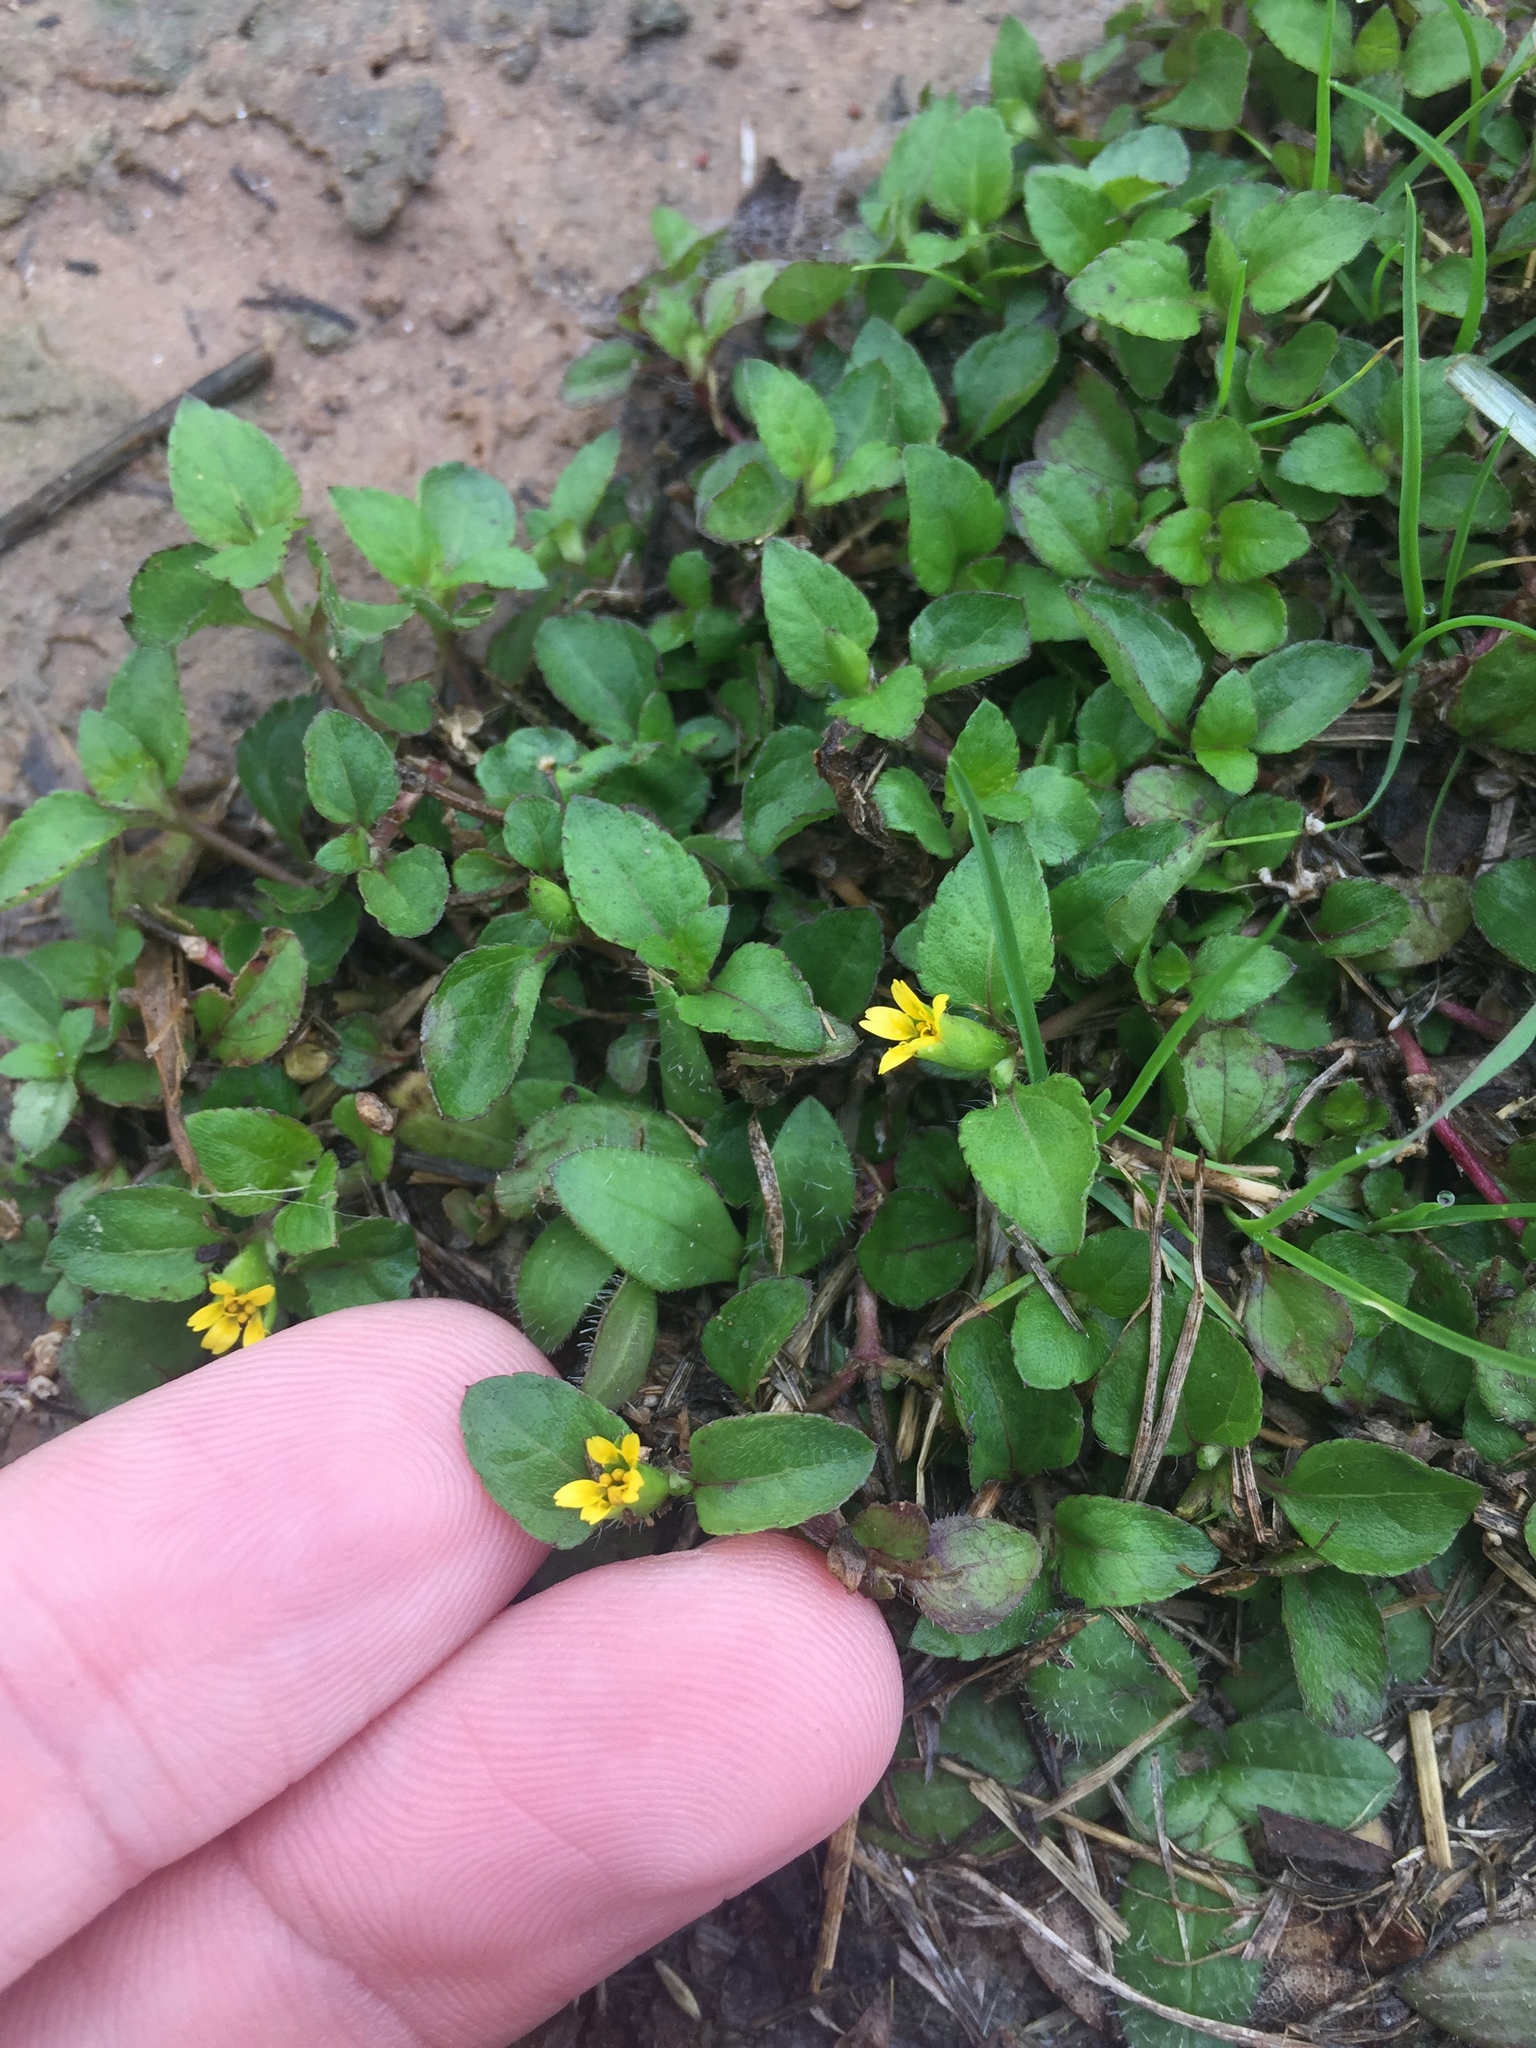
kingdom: Plantae
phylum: Tracheophyta
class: Magnoliopsida
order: Asterales
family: Asteraceae
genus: Calyptocarpus
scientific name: Calyptocarpus vialis
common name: Straggler daisy
